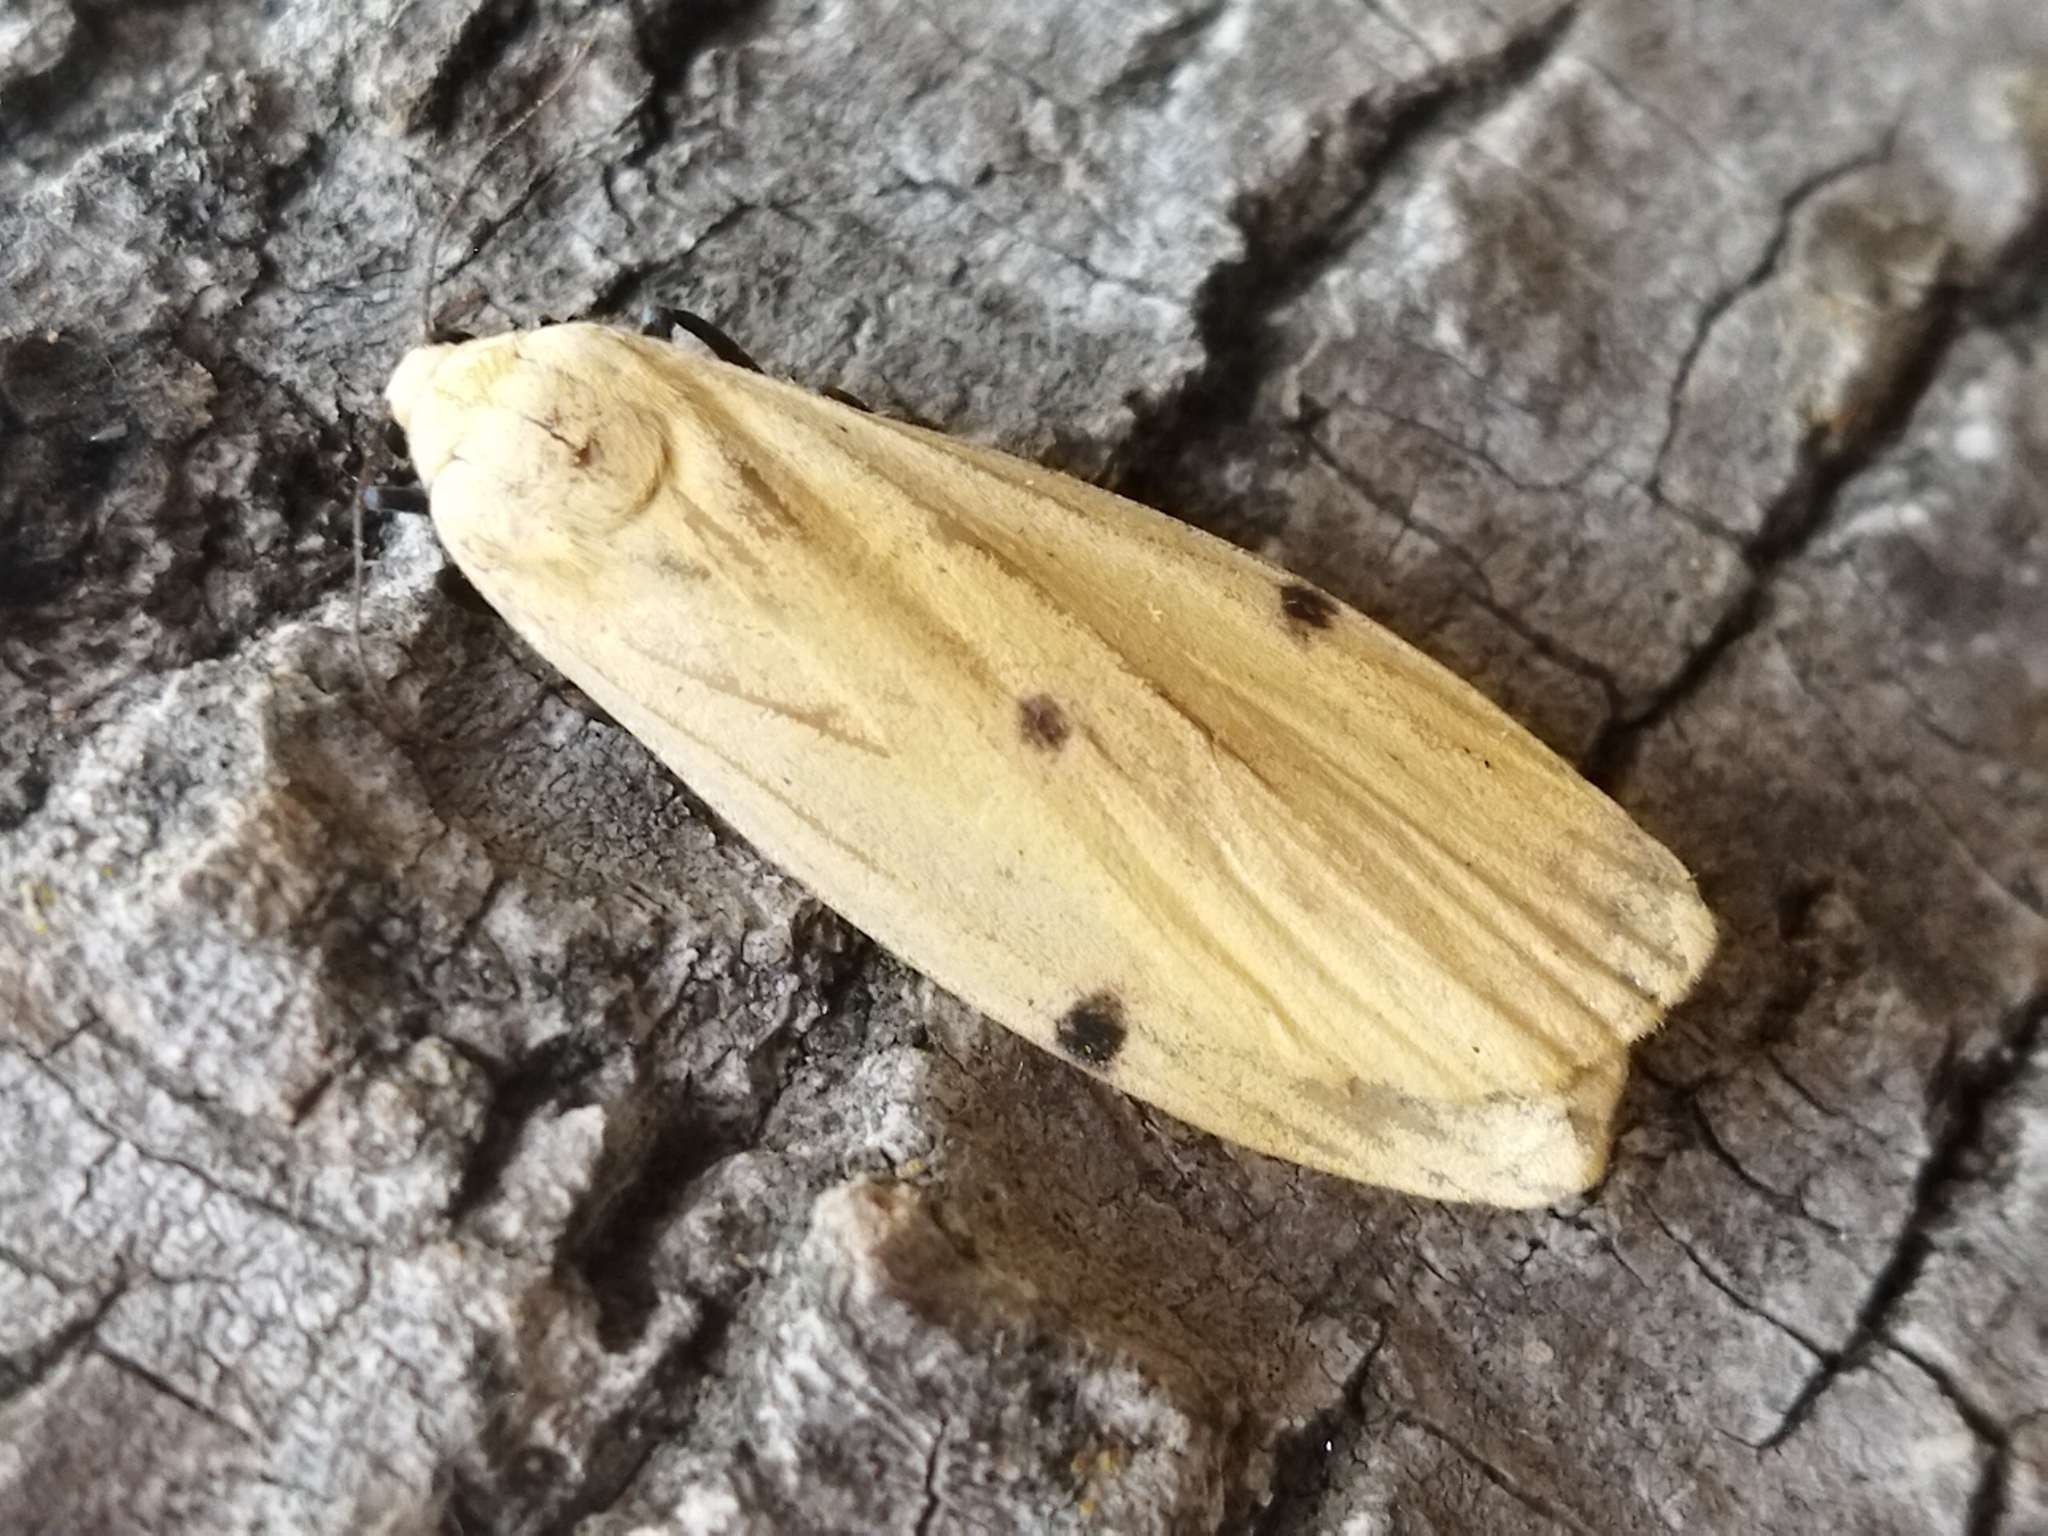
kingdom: Animalia
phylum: Arthropoda
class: Insecta
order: Lepidoptera
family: Erebidae
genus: Lithosia
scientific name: Lithosia quadra
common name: Four-spotted footman
